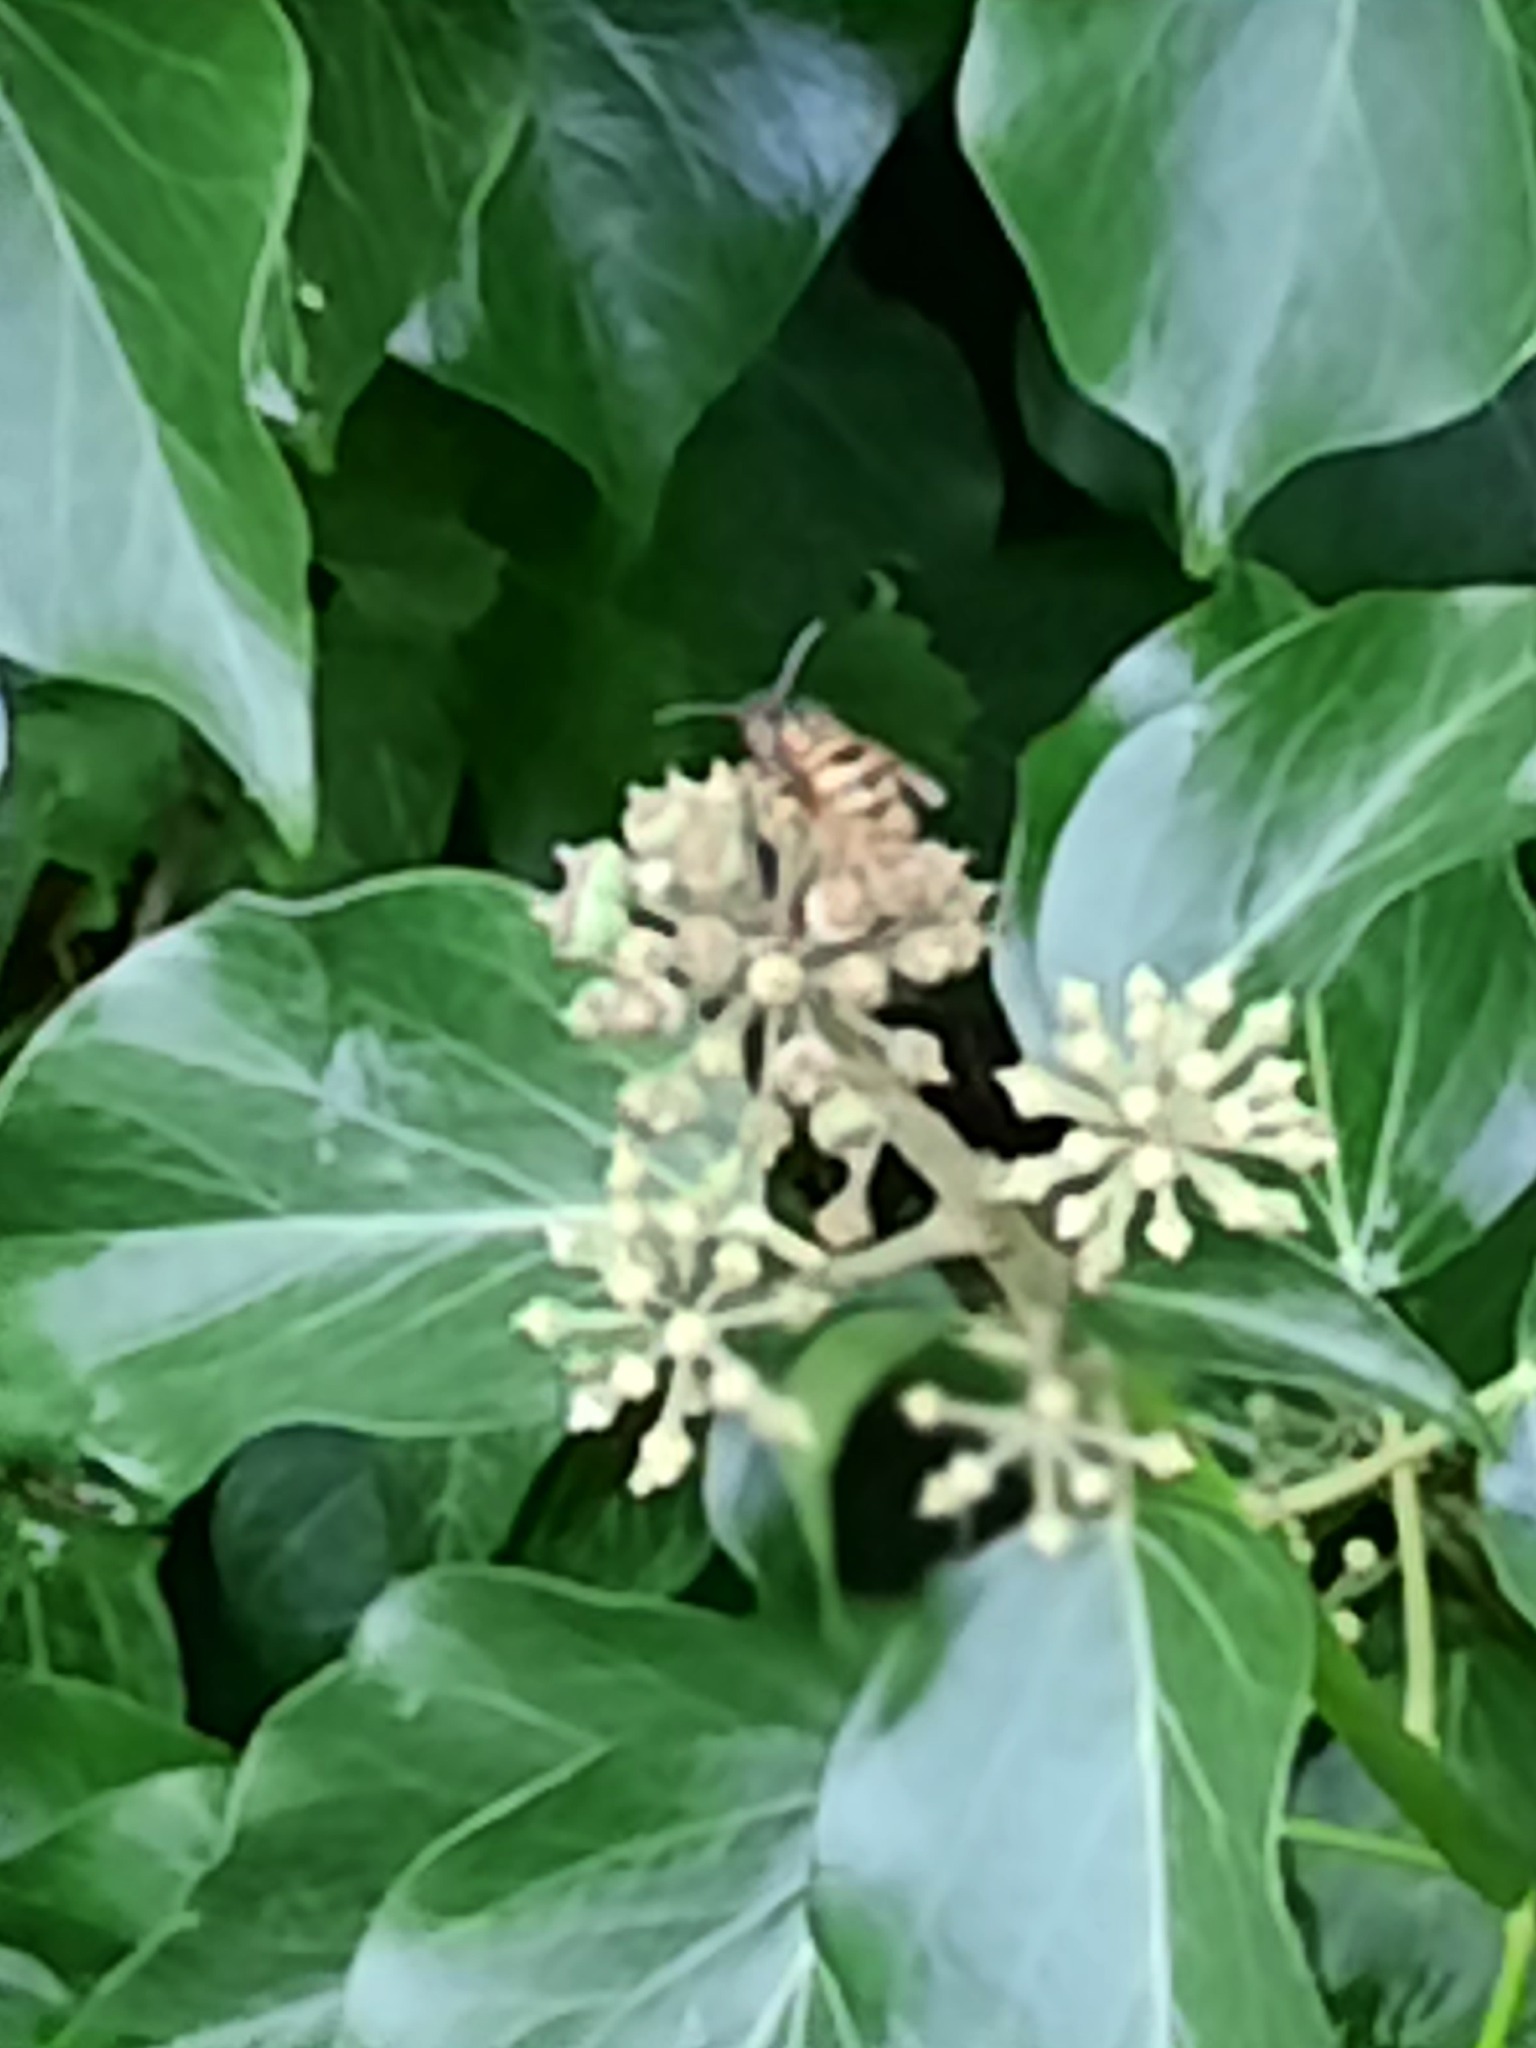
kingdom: Animalia
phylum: Arthropoda
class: Insecta
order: Hymenoptera
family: Vespidae
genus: Vespula
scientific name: Vespula vulgaris
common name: Common wasp
